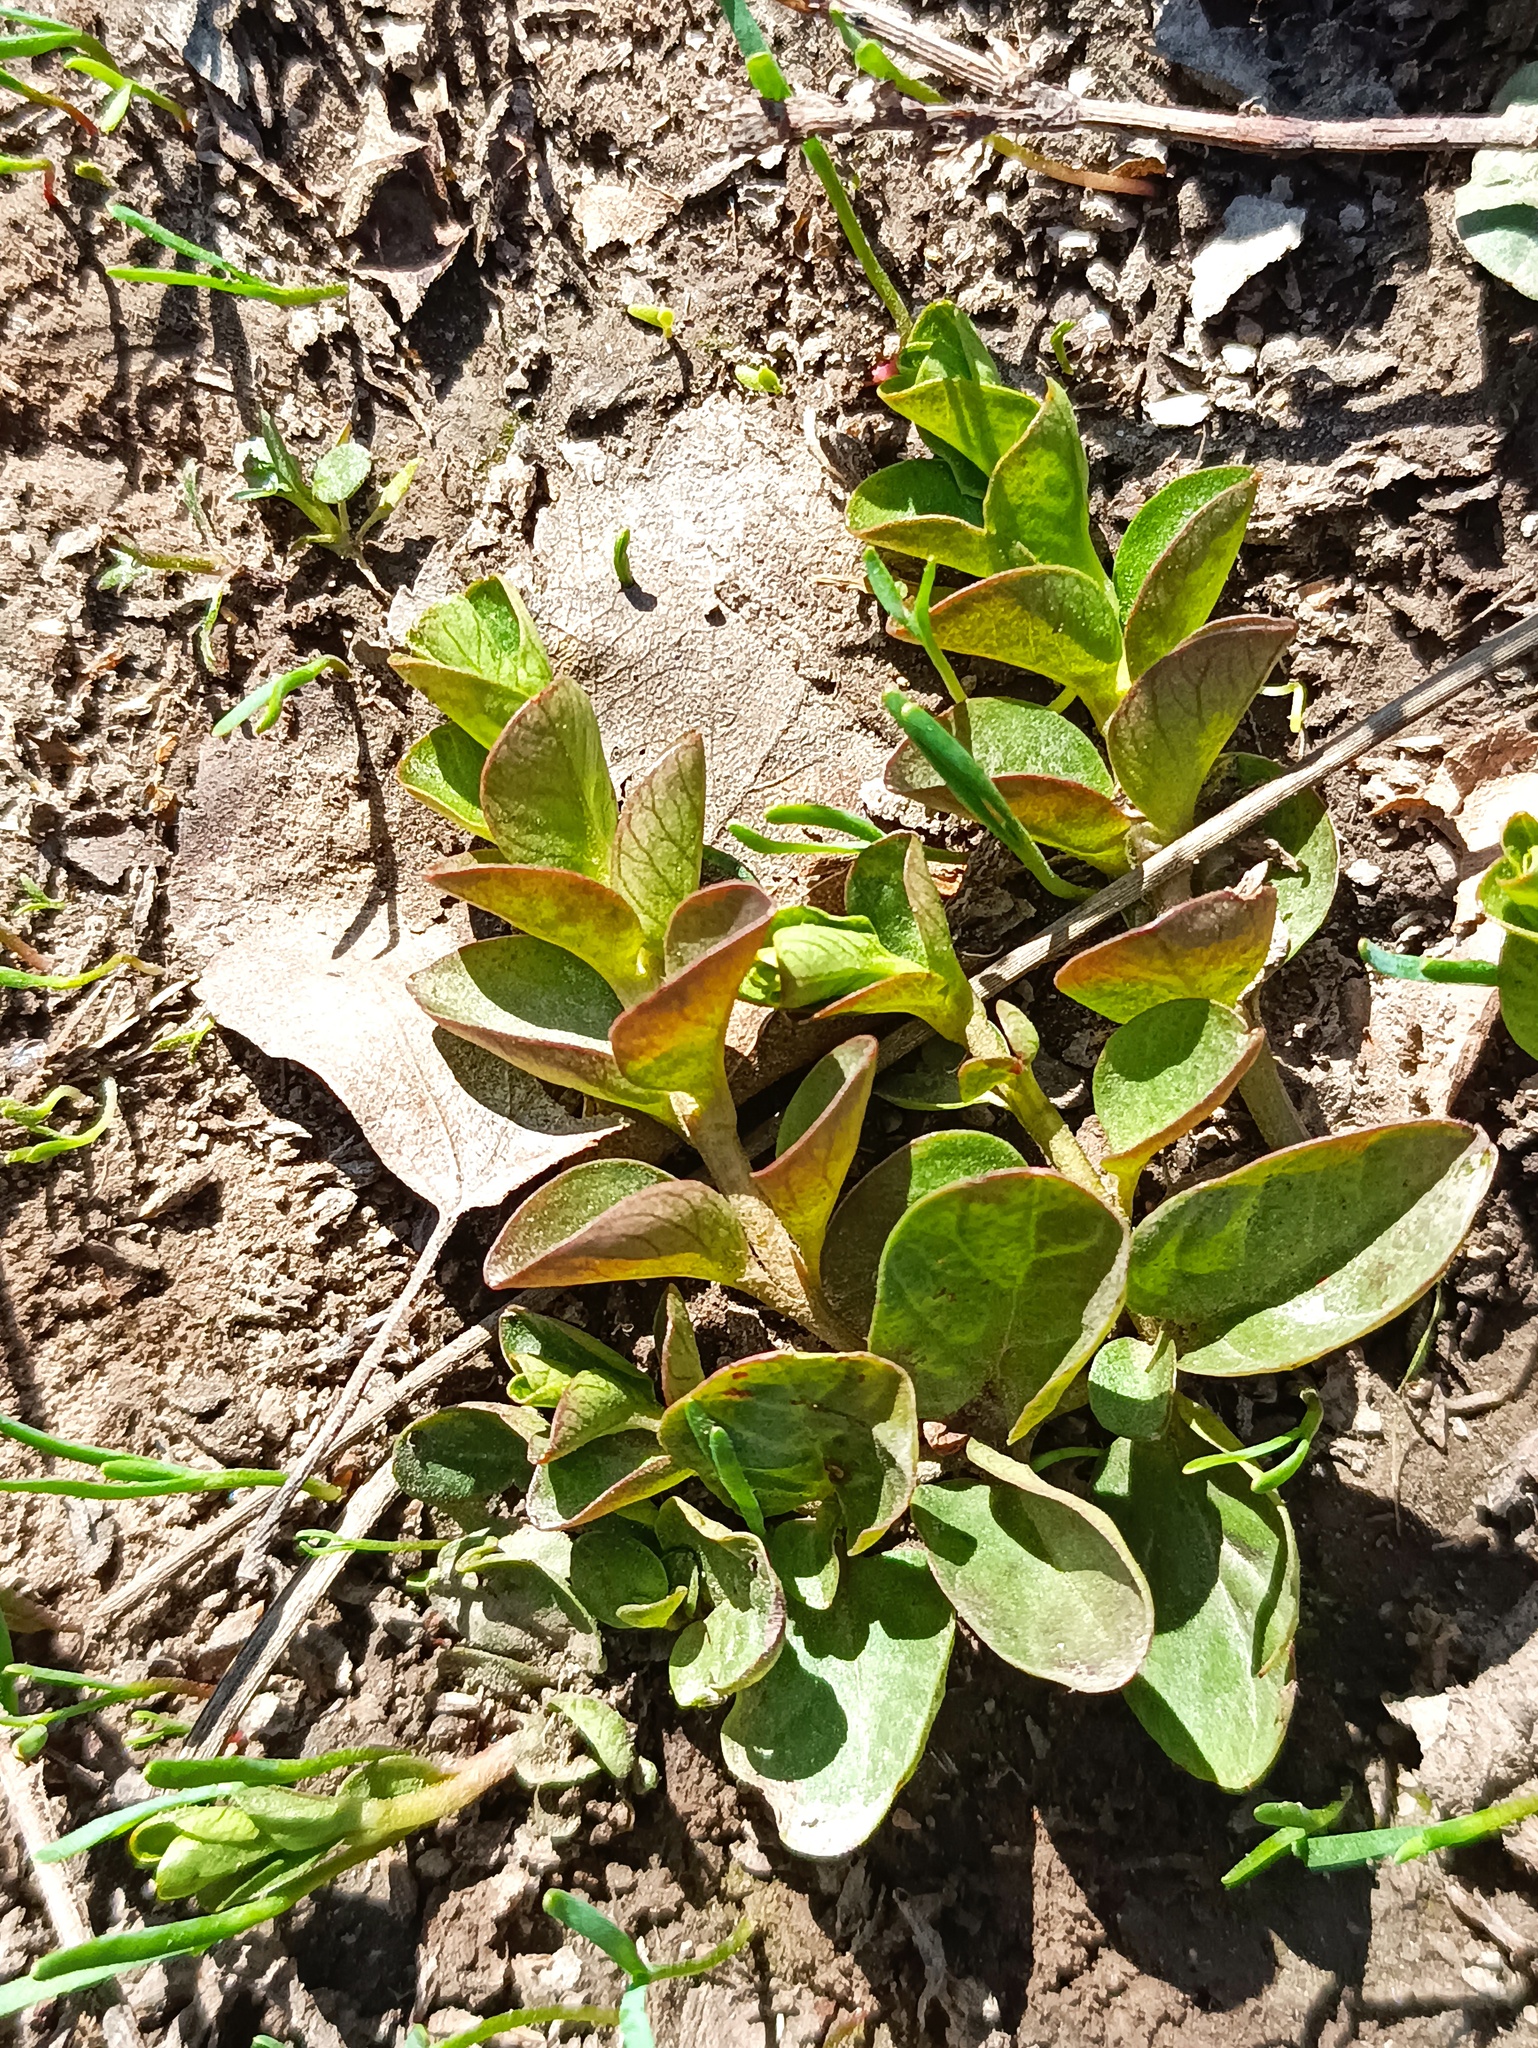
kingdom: Plantae
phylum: Tracheophyta
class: Magnoliopsida
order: Ericales
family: Primulaceae
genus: Lysimachia
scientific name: Lysimachia nummularia
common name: Moneywort
